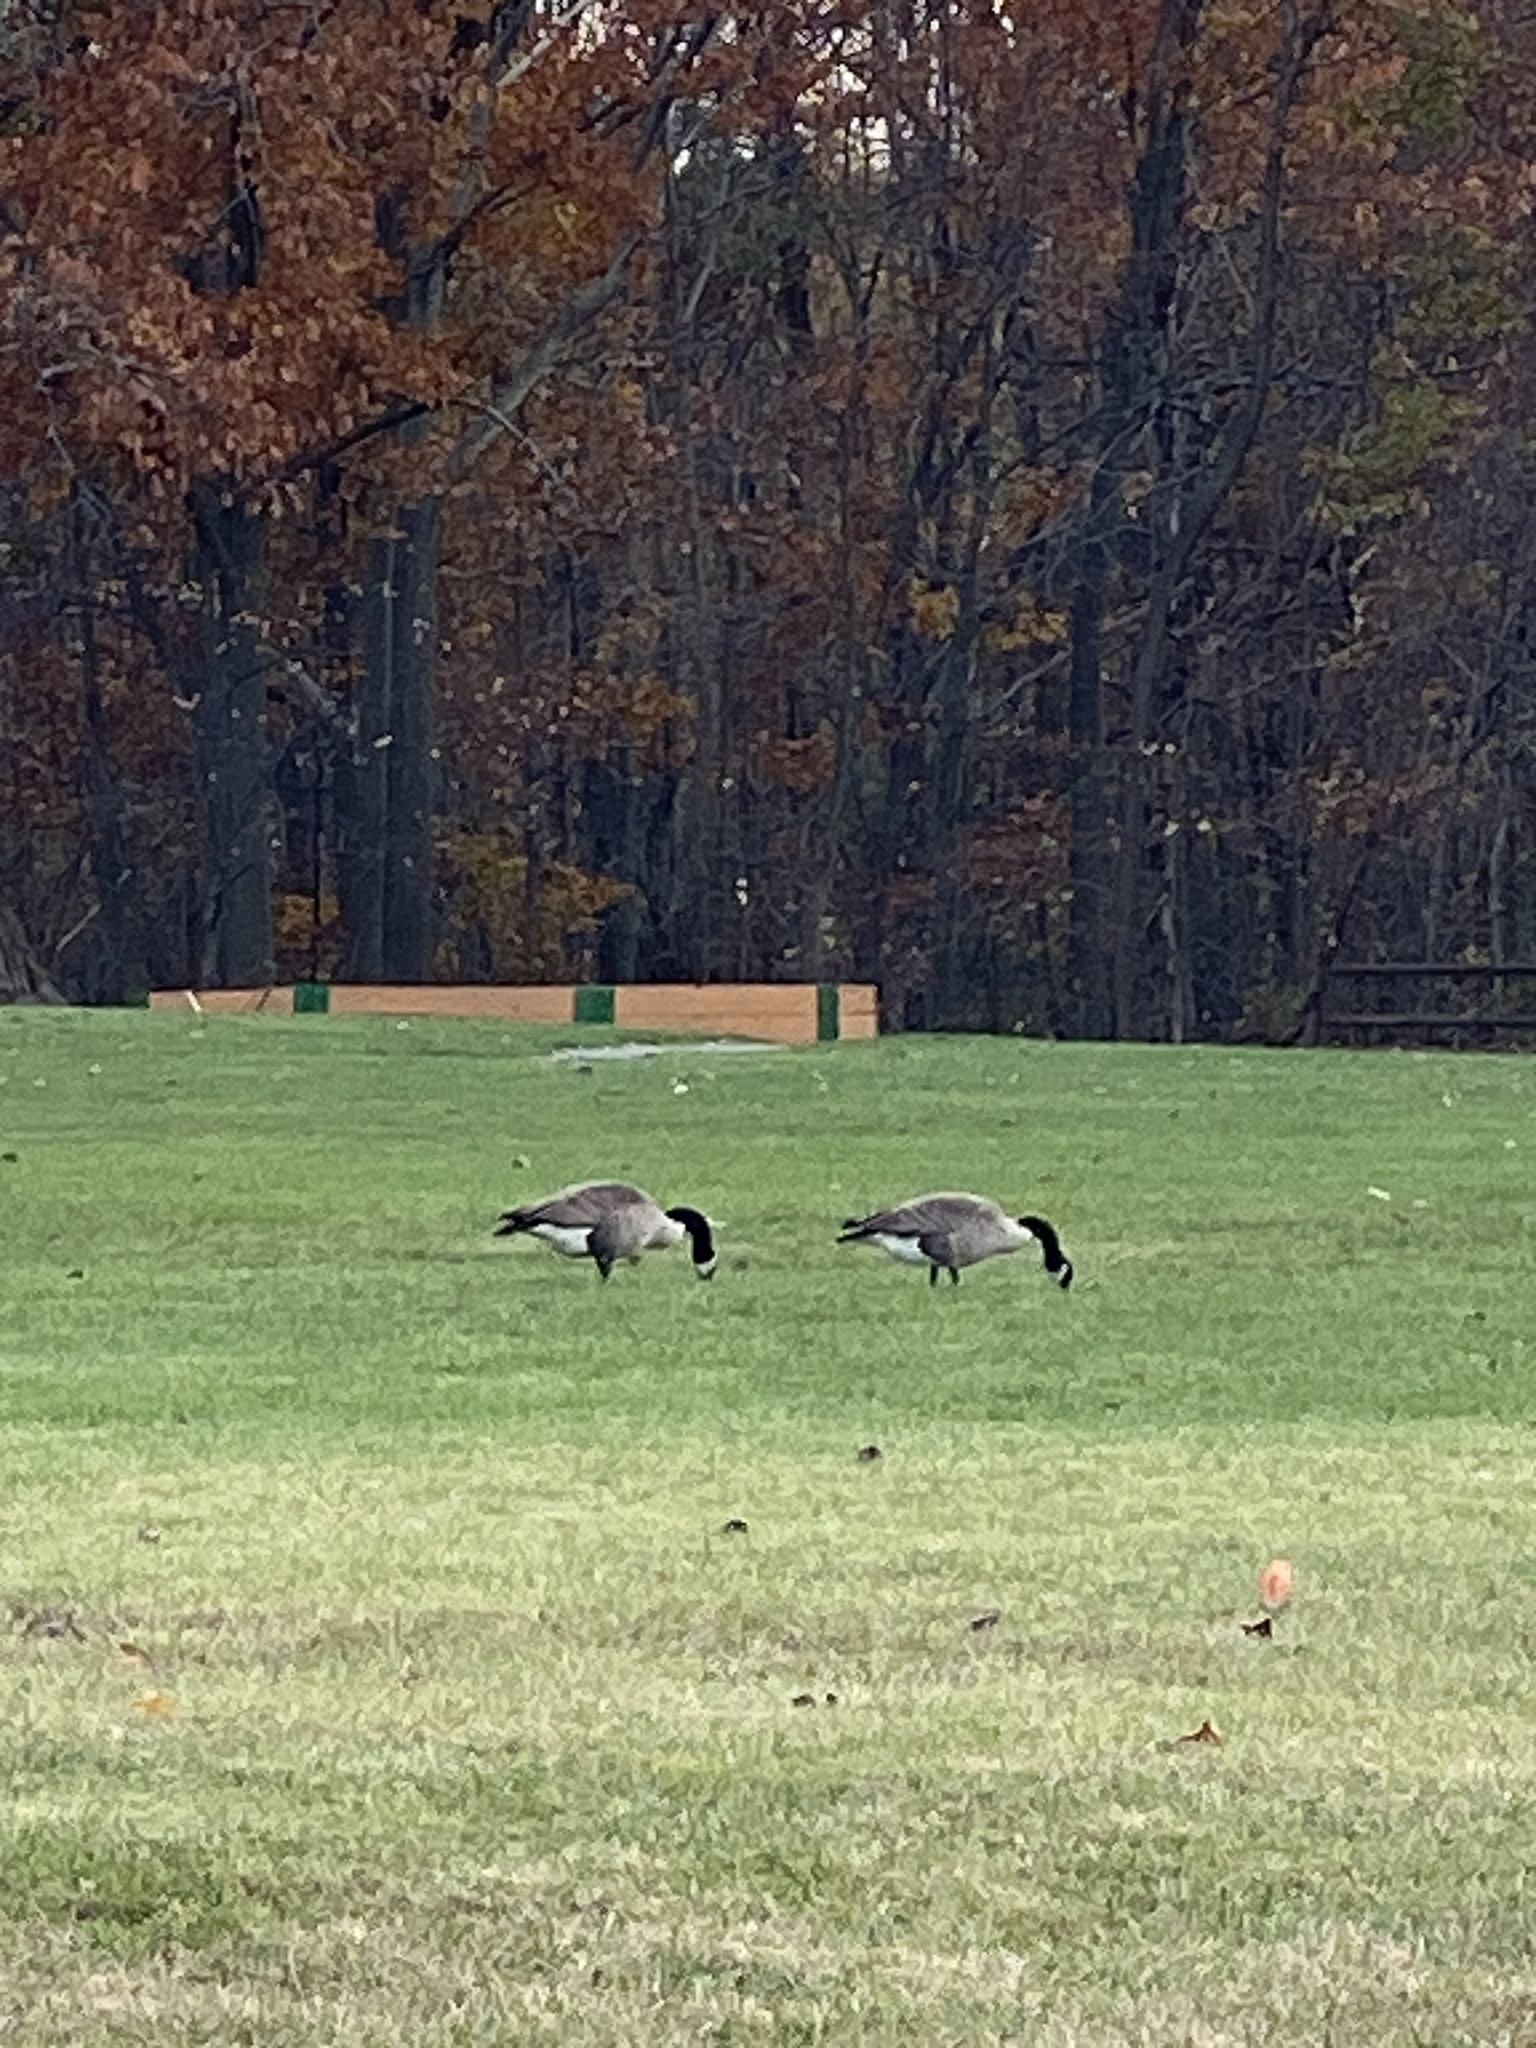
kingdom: Animalia
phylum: Chordata
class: Aves
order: Anseriformes
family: Anatidae
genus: Branta
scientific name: Branta canadensis
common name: Canada goose
